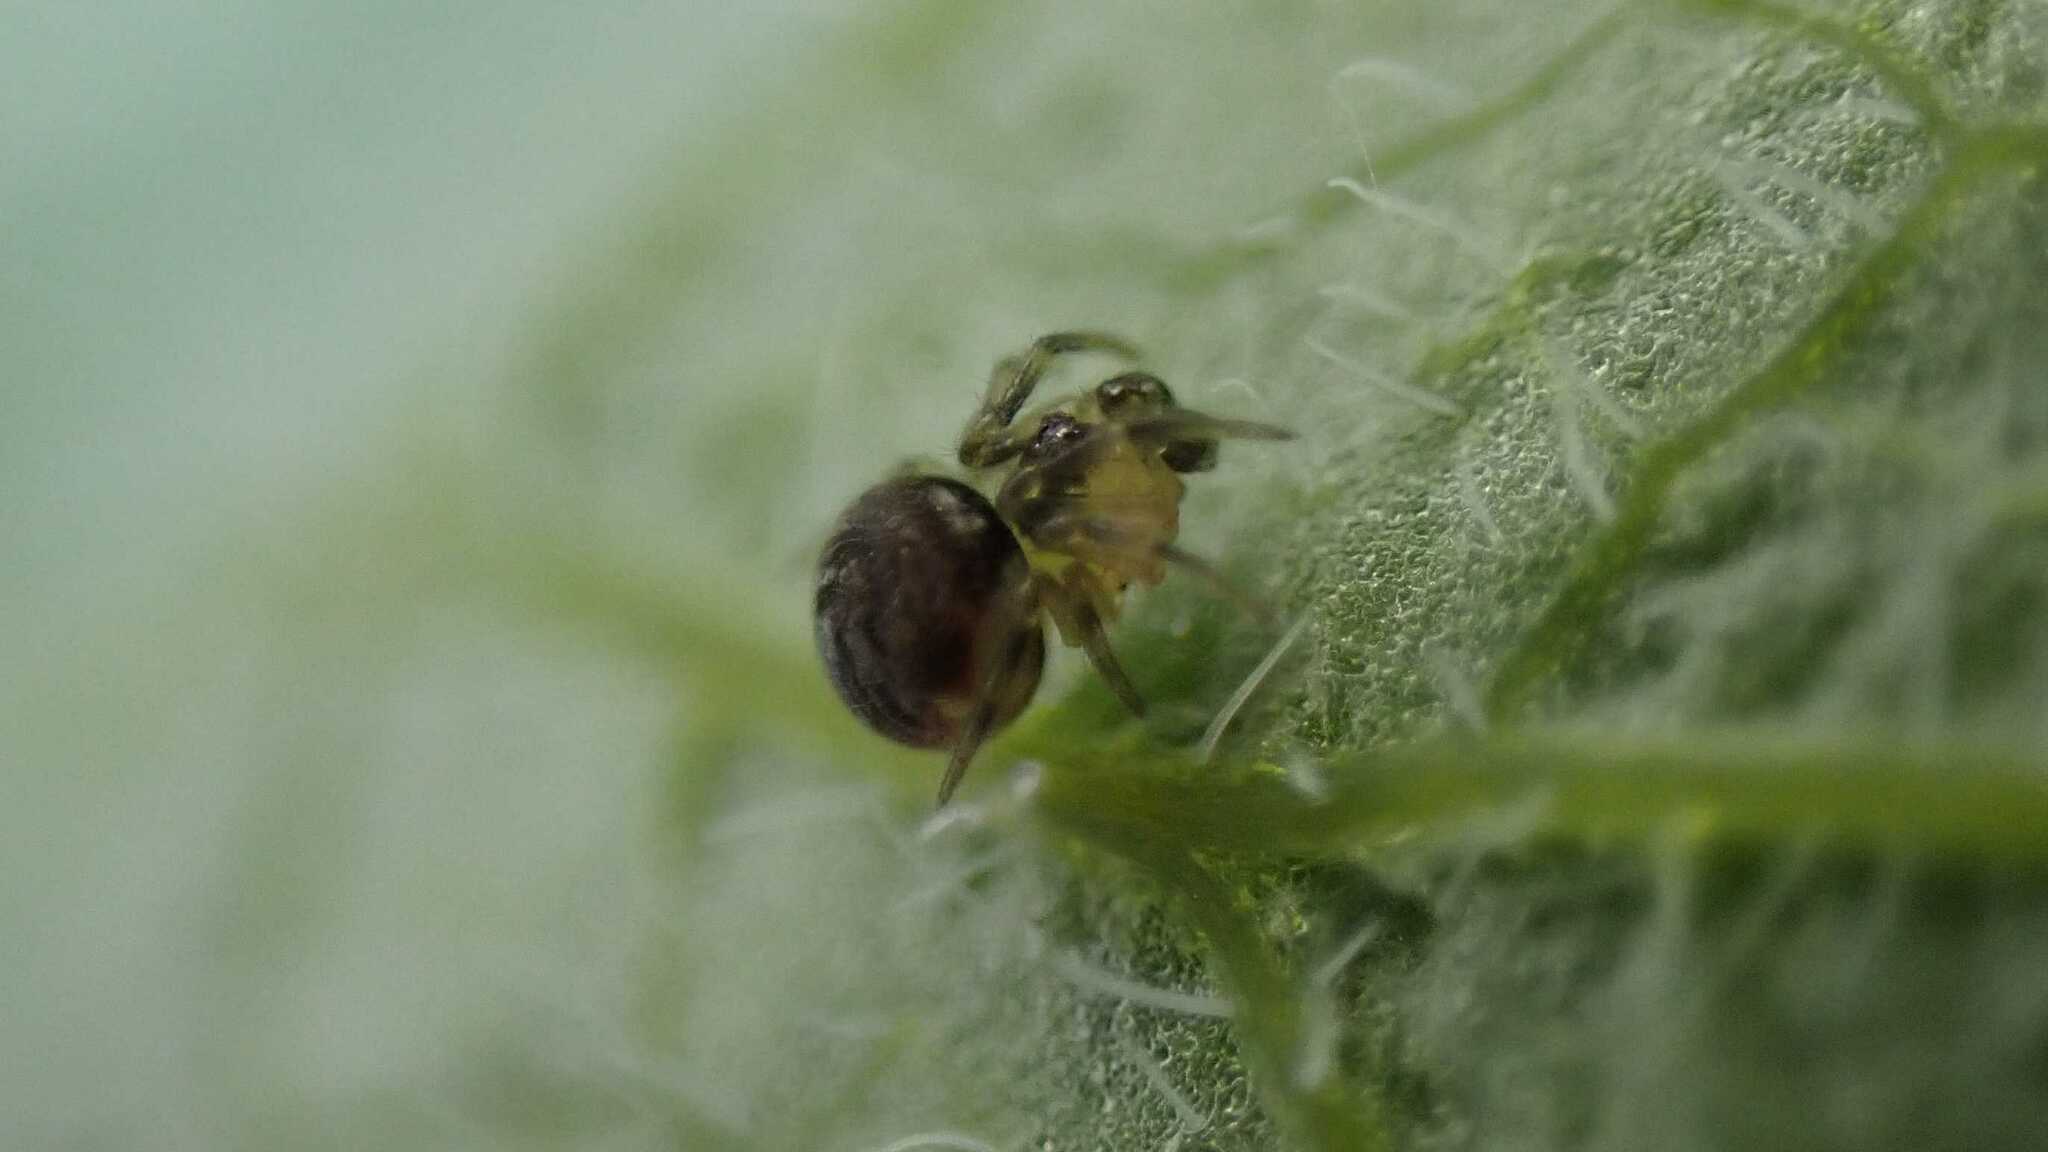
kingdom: Animalia
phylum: Arthropoda
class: Arachnida
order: Araneae
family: Theridiidae
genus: Paidiscura
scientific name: Paidiscura pallens
